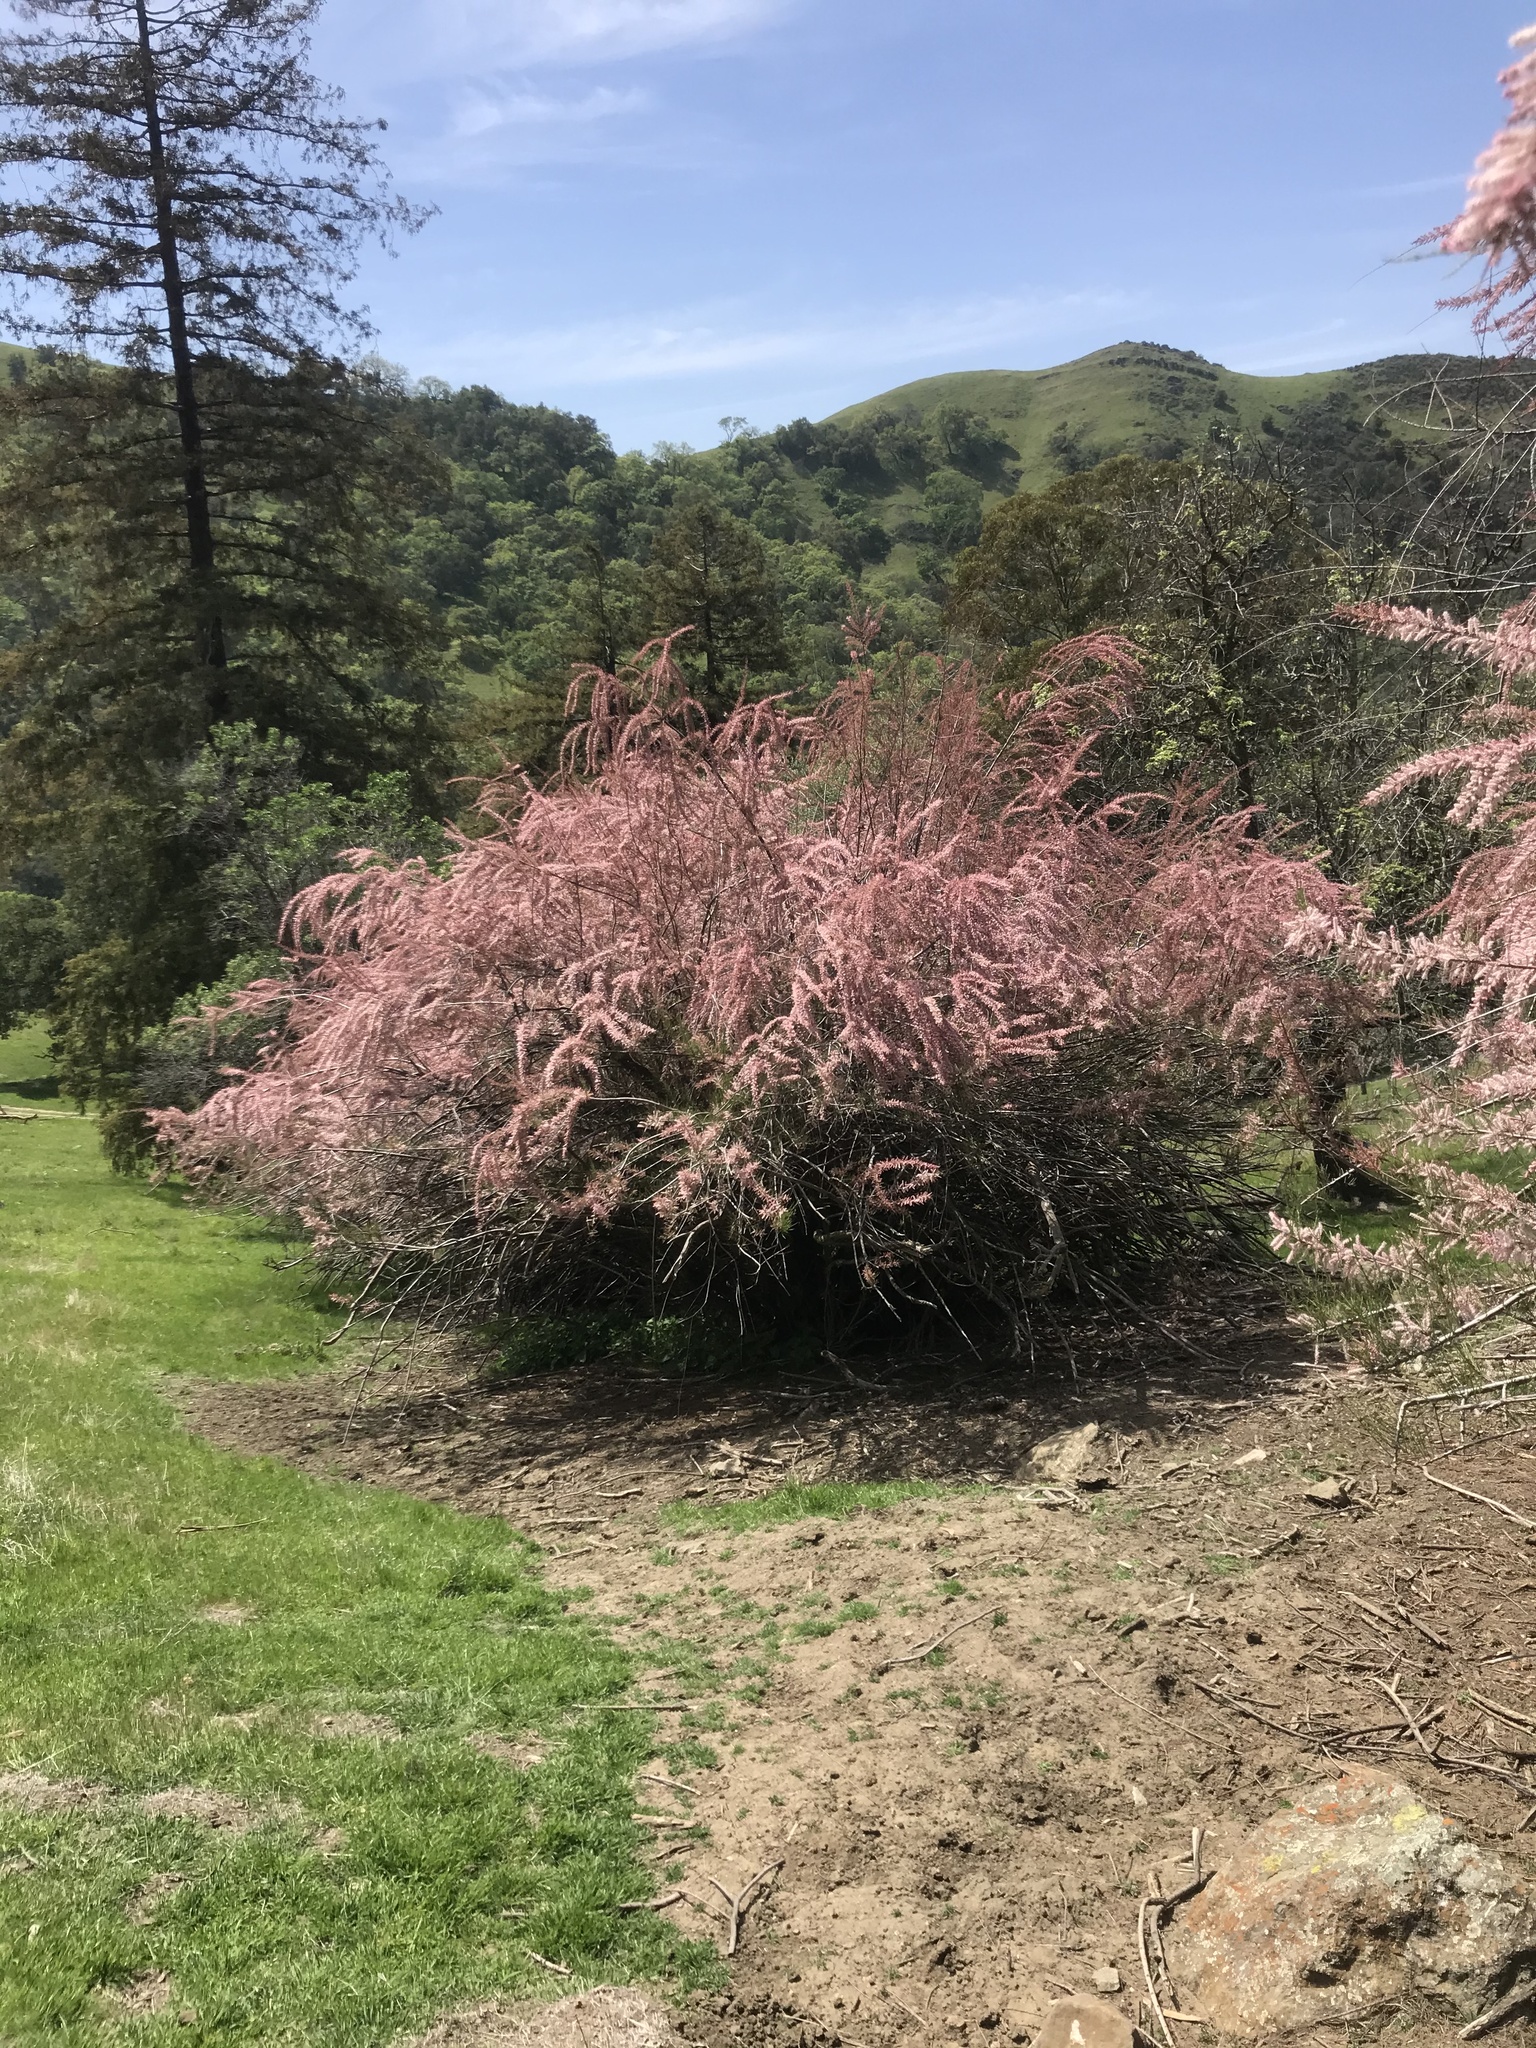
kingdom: Plantae
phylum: Tracheophyta
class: Magnoliopsida
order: Caryophyllales
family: Tamaricaceae
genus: Tamarix
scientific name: Tamarix ramosissima
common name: Pink tamarisk
